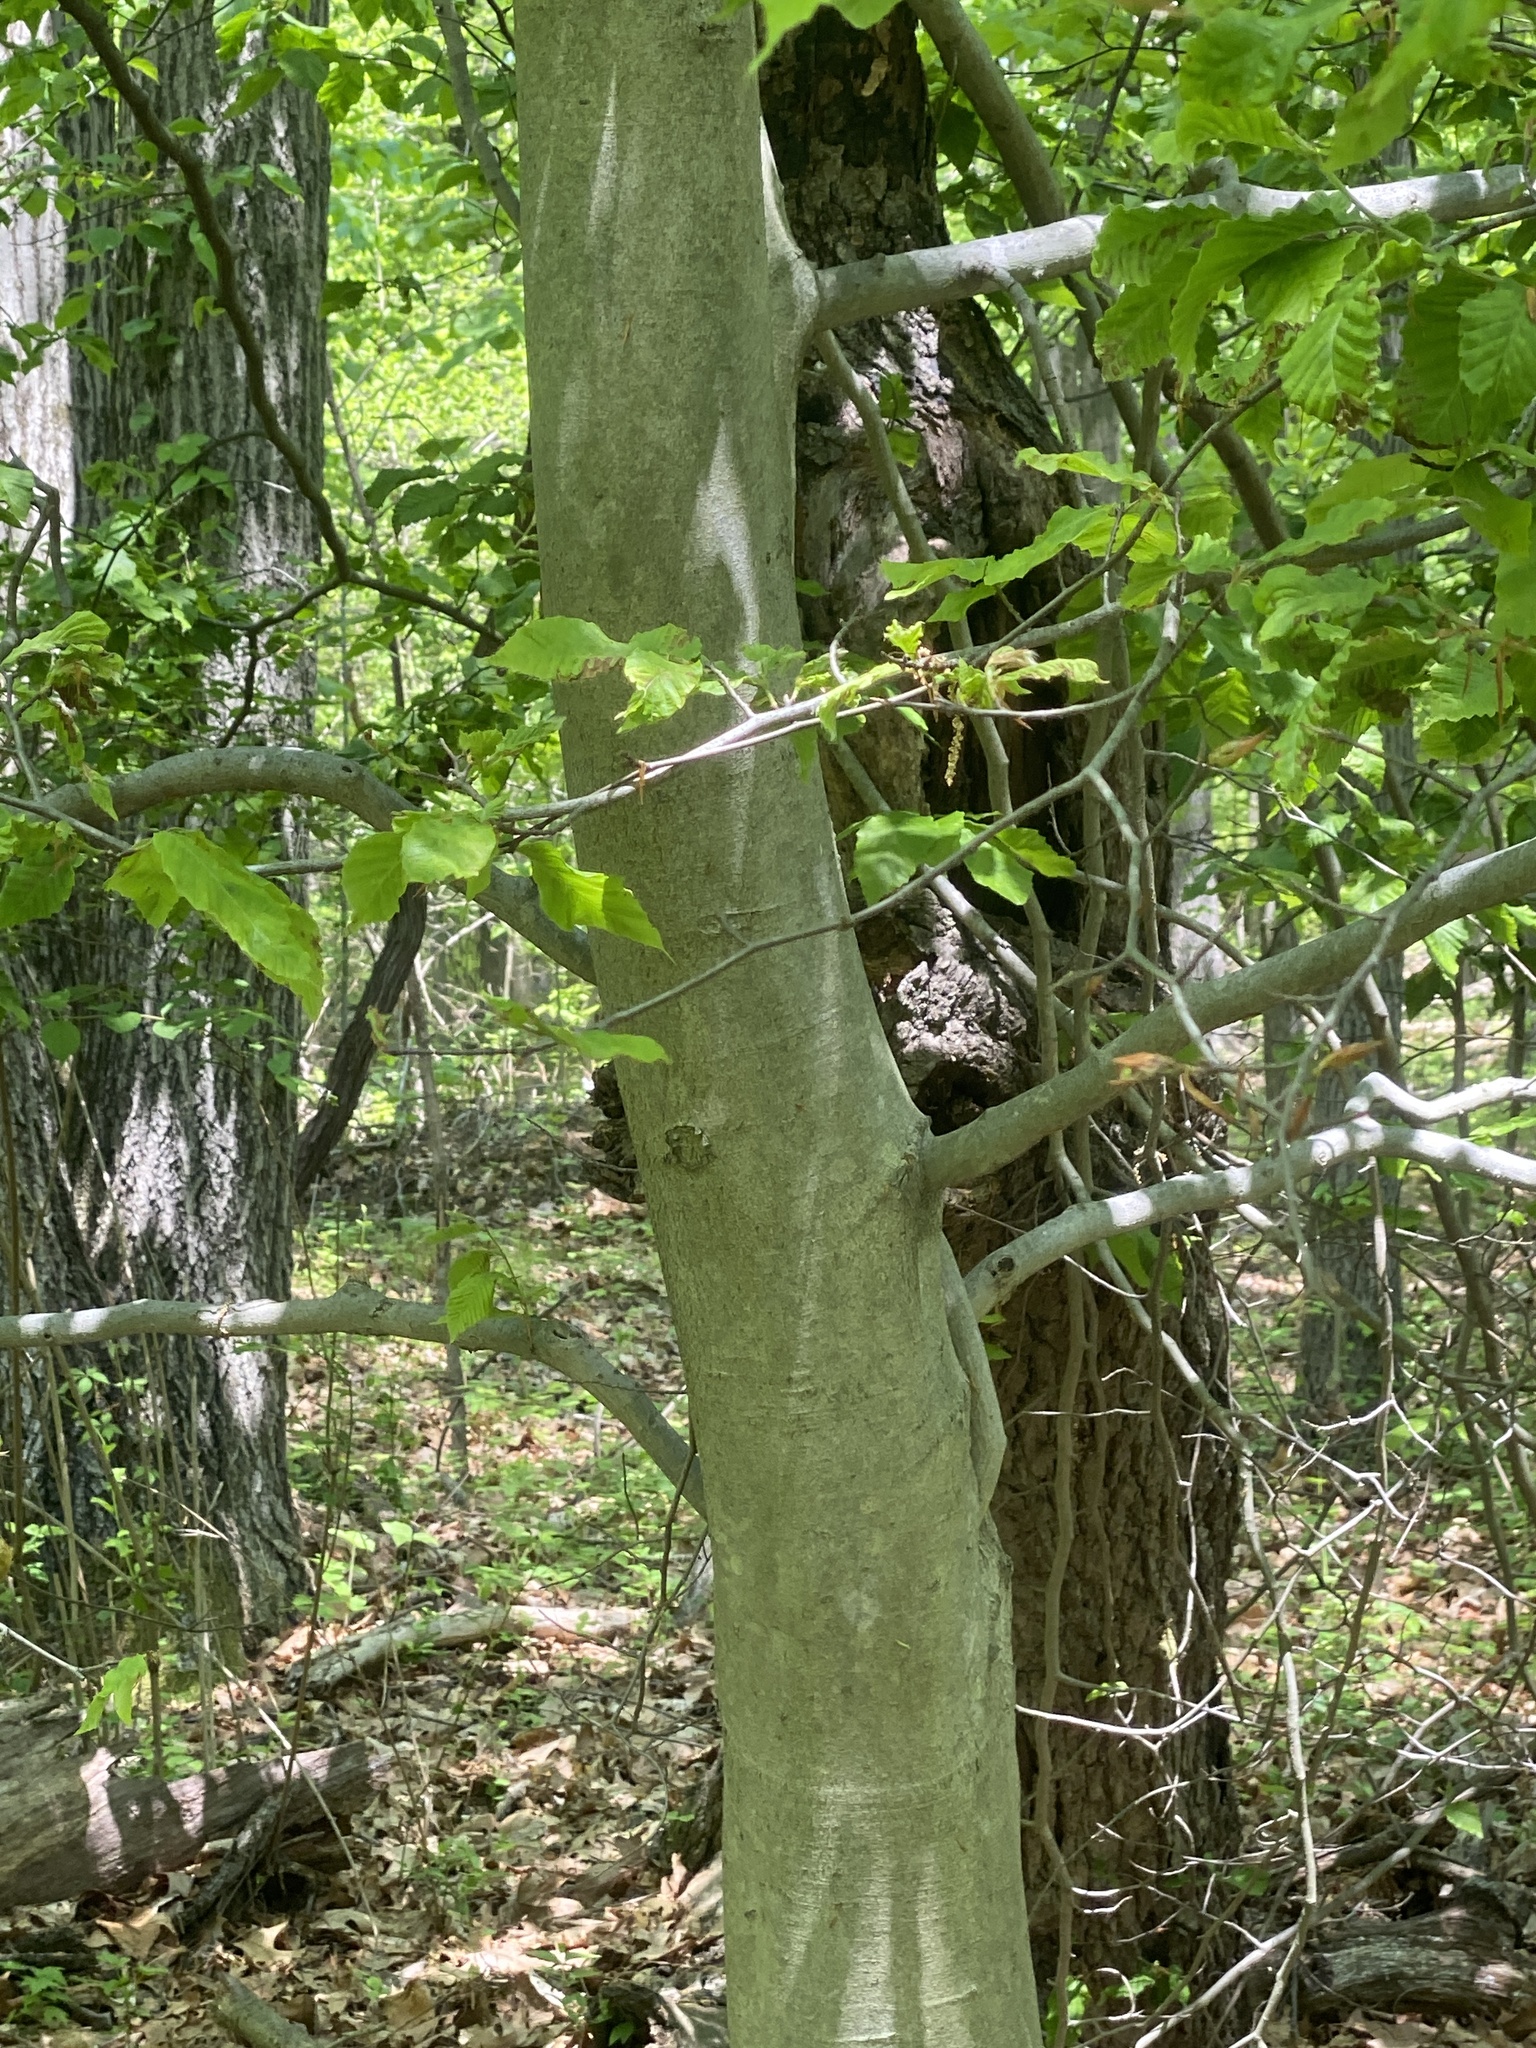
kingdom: Plantae
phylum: Tracheophyta
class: Magnoliopsida
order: Fagales
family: Fagaceae
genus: Fagus
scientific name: Fagus grandifolia
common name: American beech
